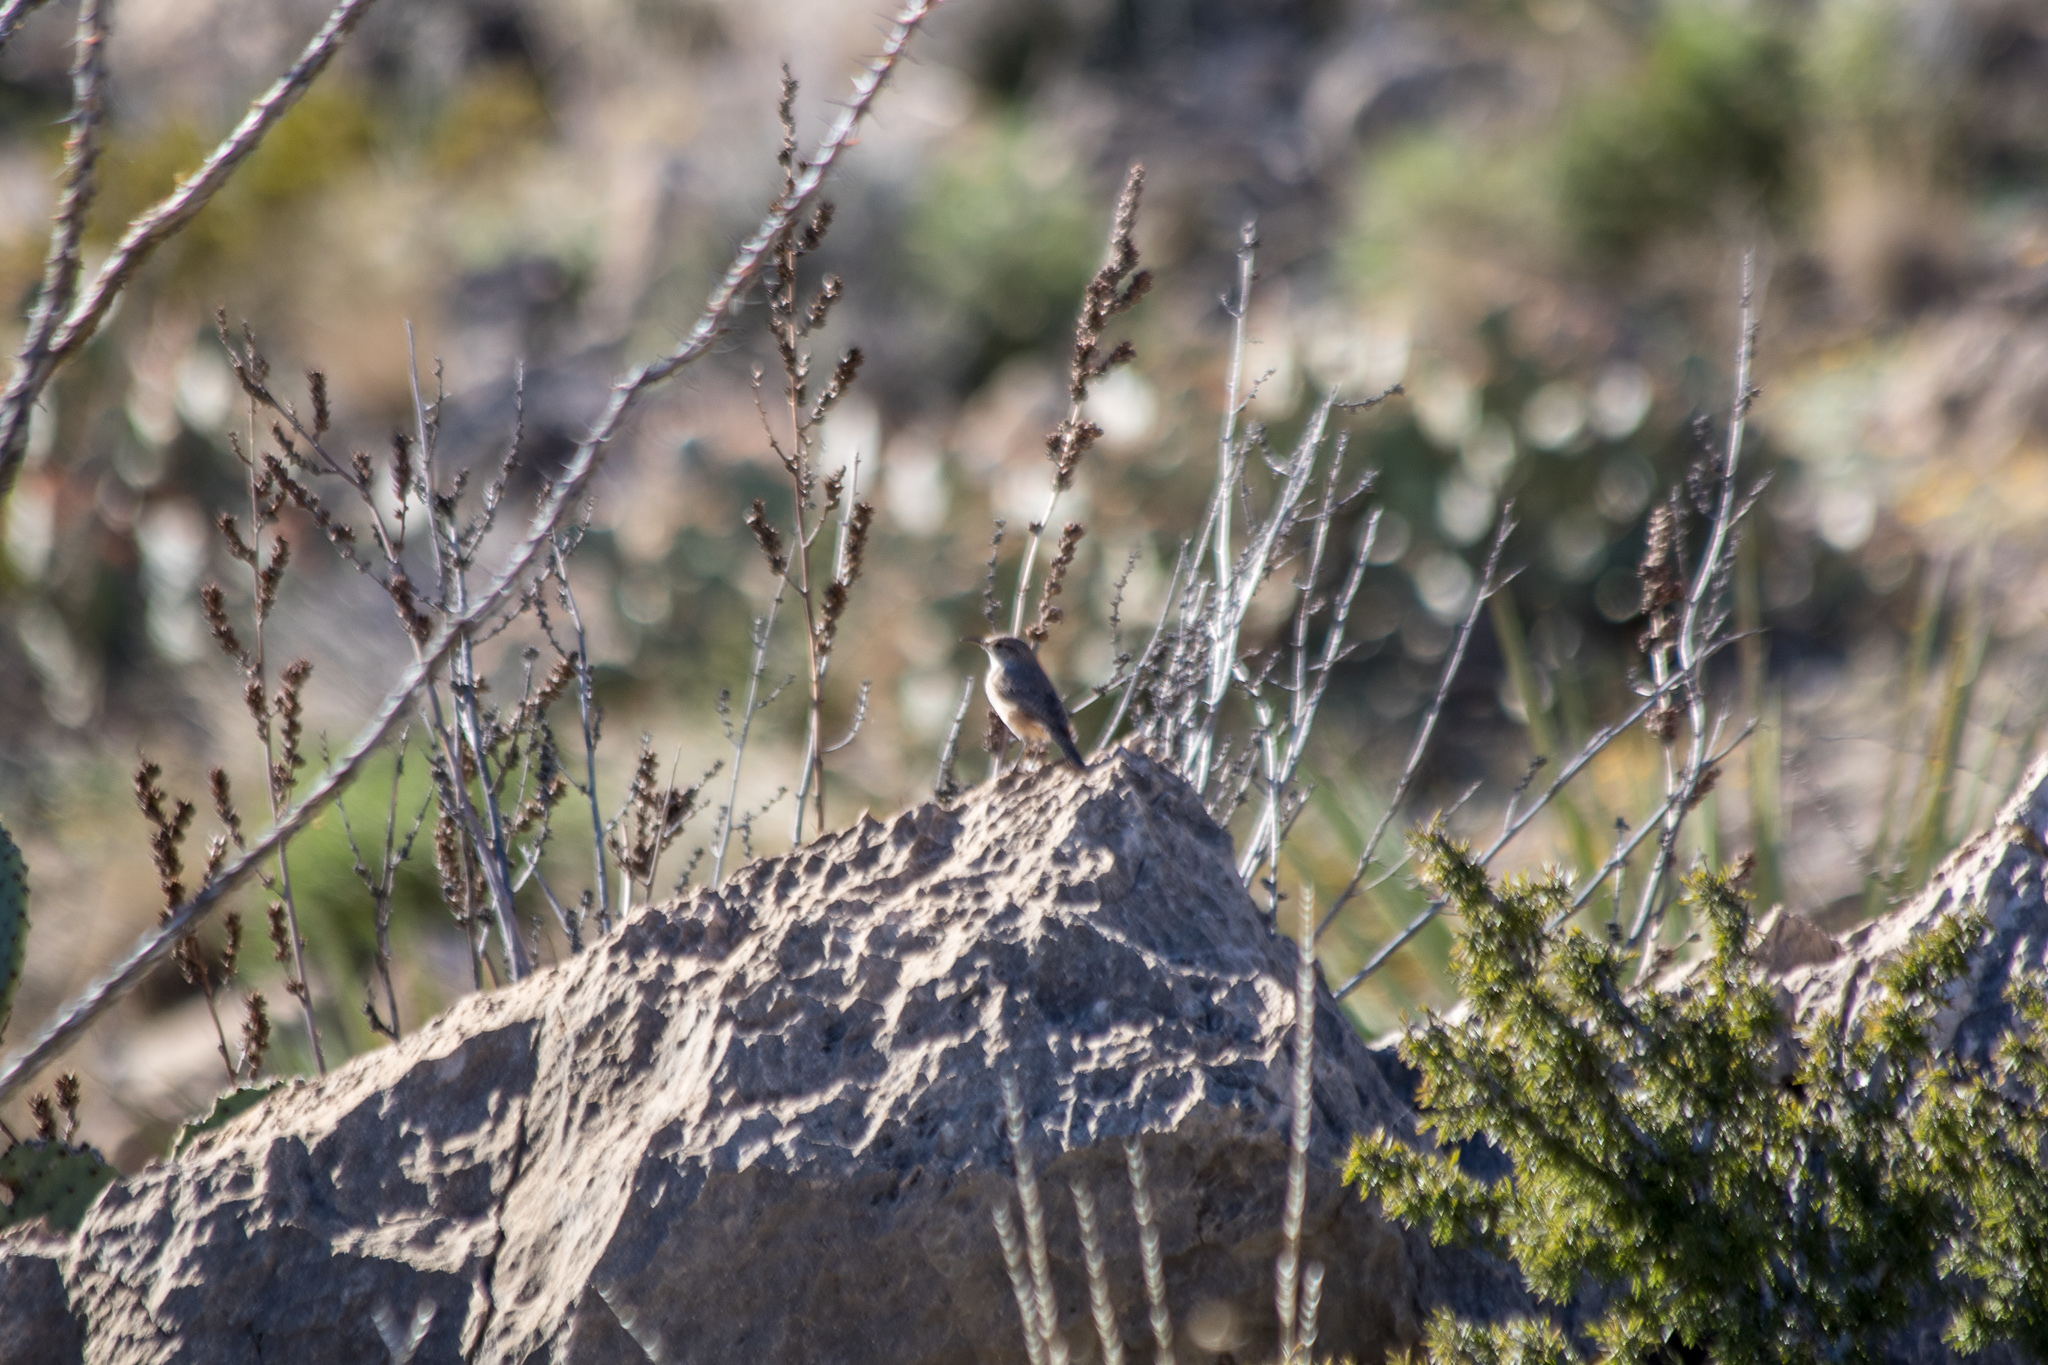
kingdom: Animalia
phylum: Chordata
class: Aves
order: Passeriformes
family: Troglodytidae
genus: Salpinctes
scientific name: Salpinctes obsoletus
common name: Rock wren
